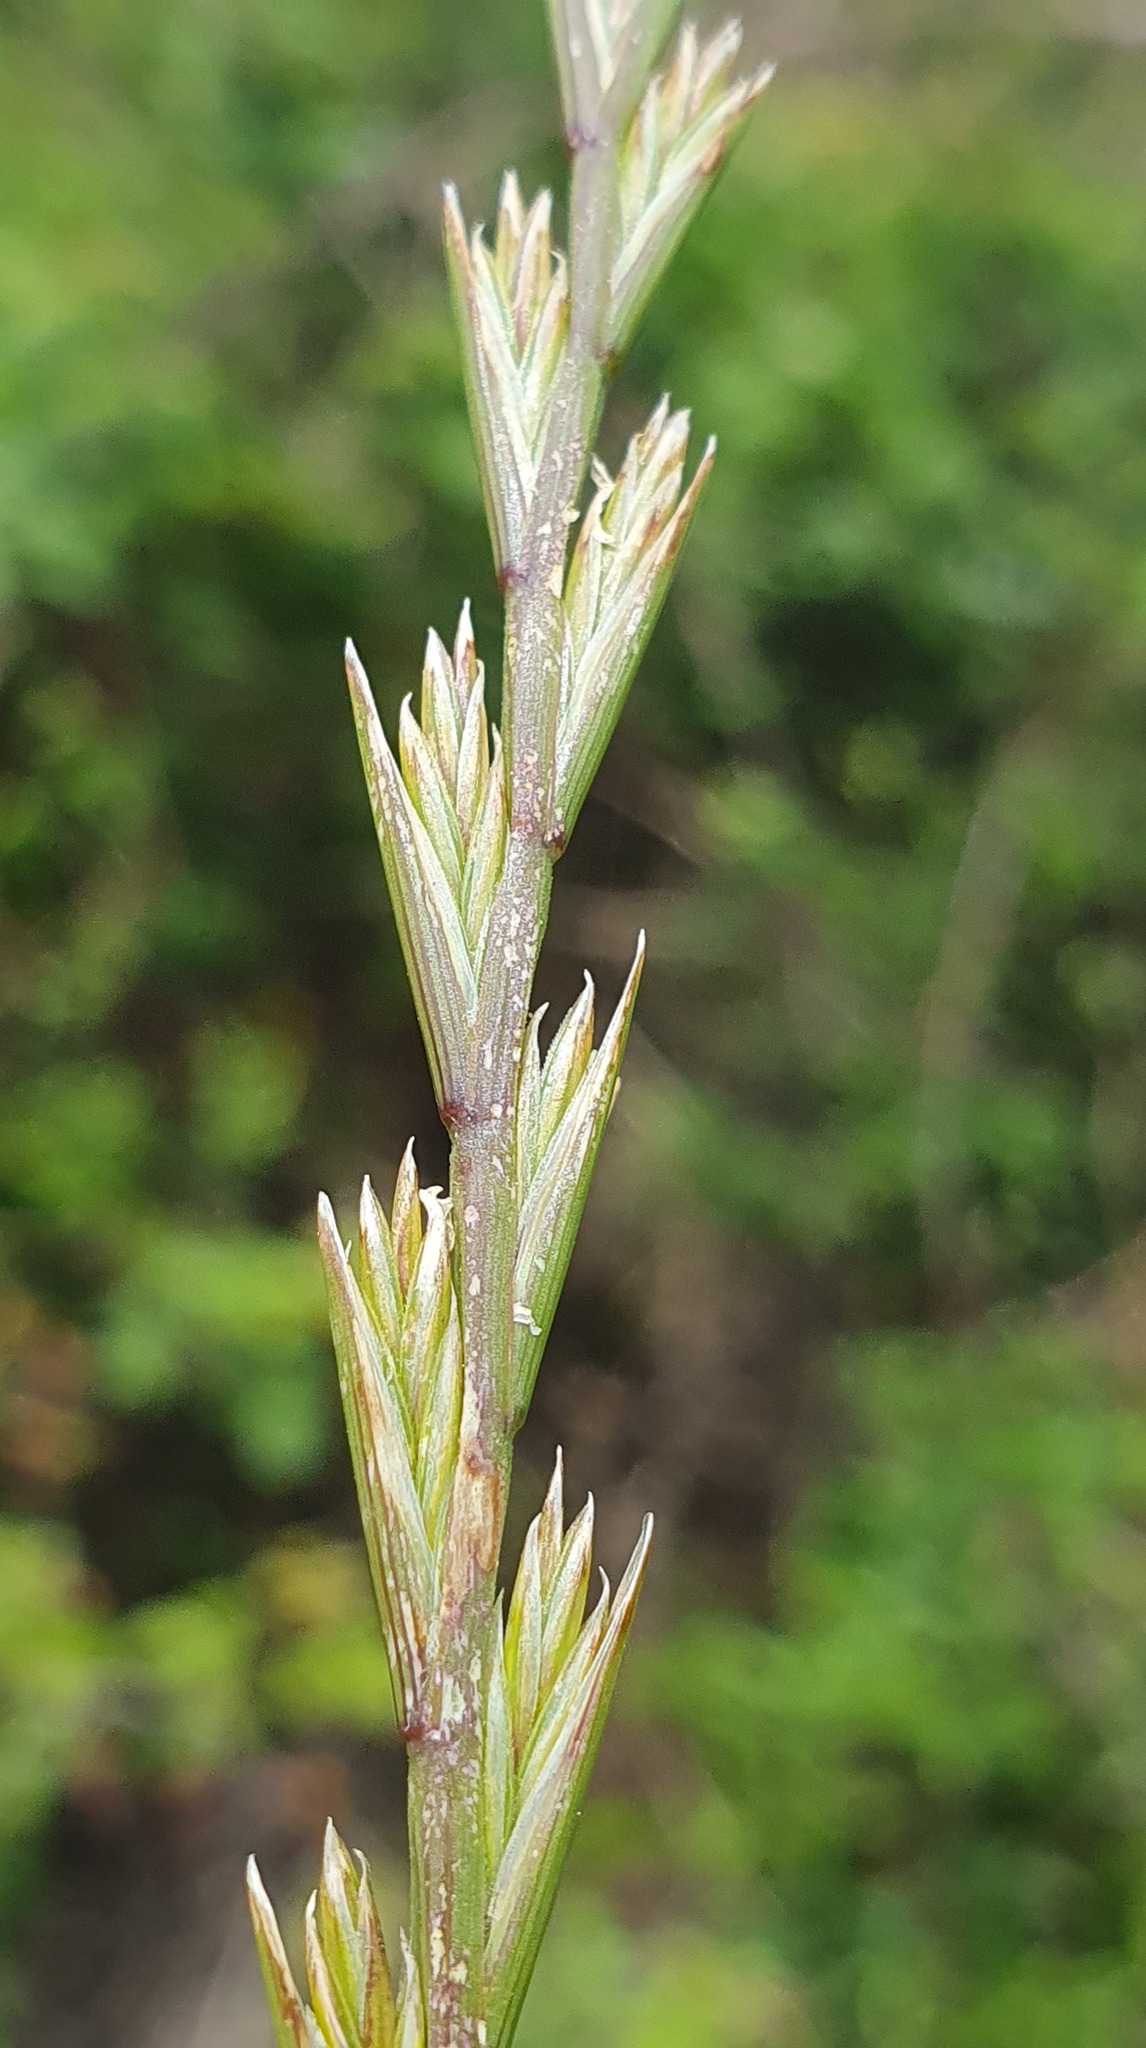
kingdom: Plantae
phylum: Tracheophyta
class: Liliopsida
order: Poales
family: Poaceae
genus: Lolium
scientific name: Lolium rigidum
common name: Wimmera ryegrass
